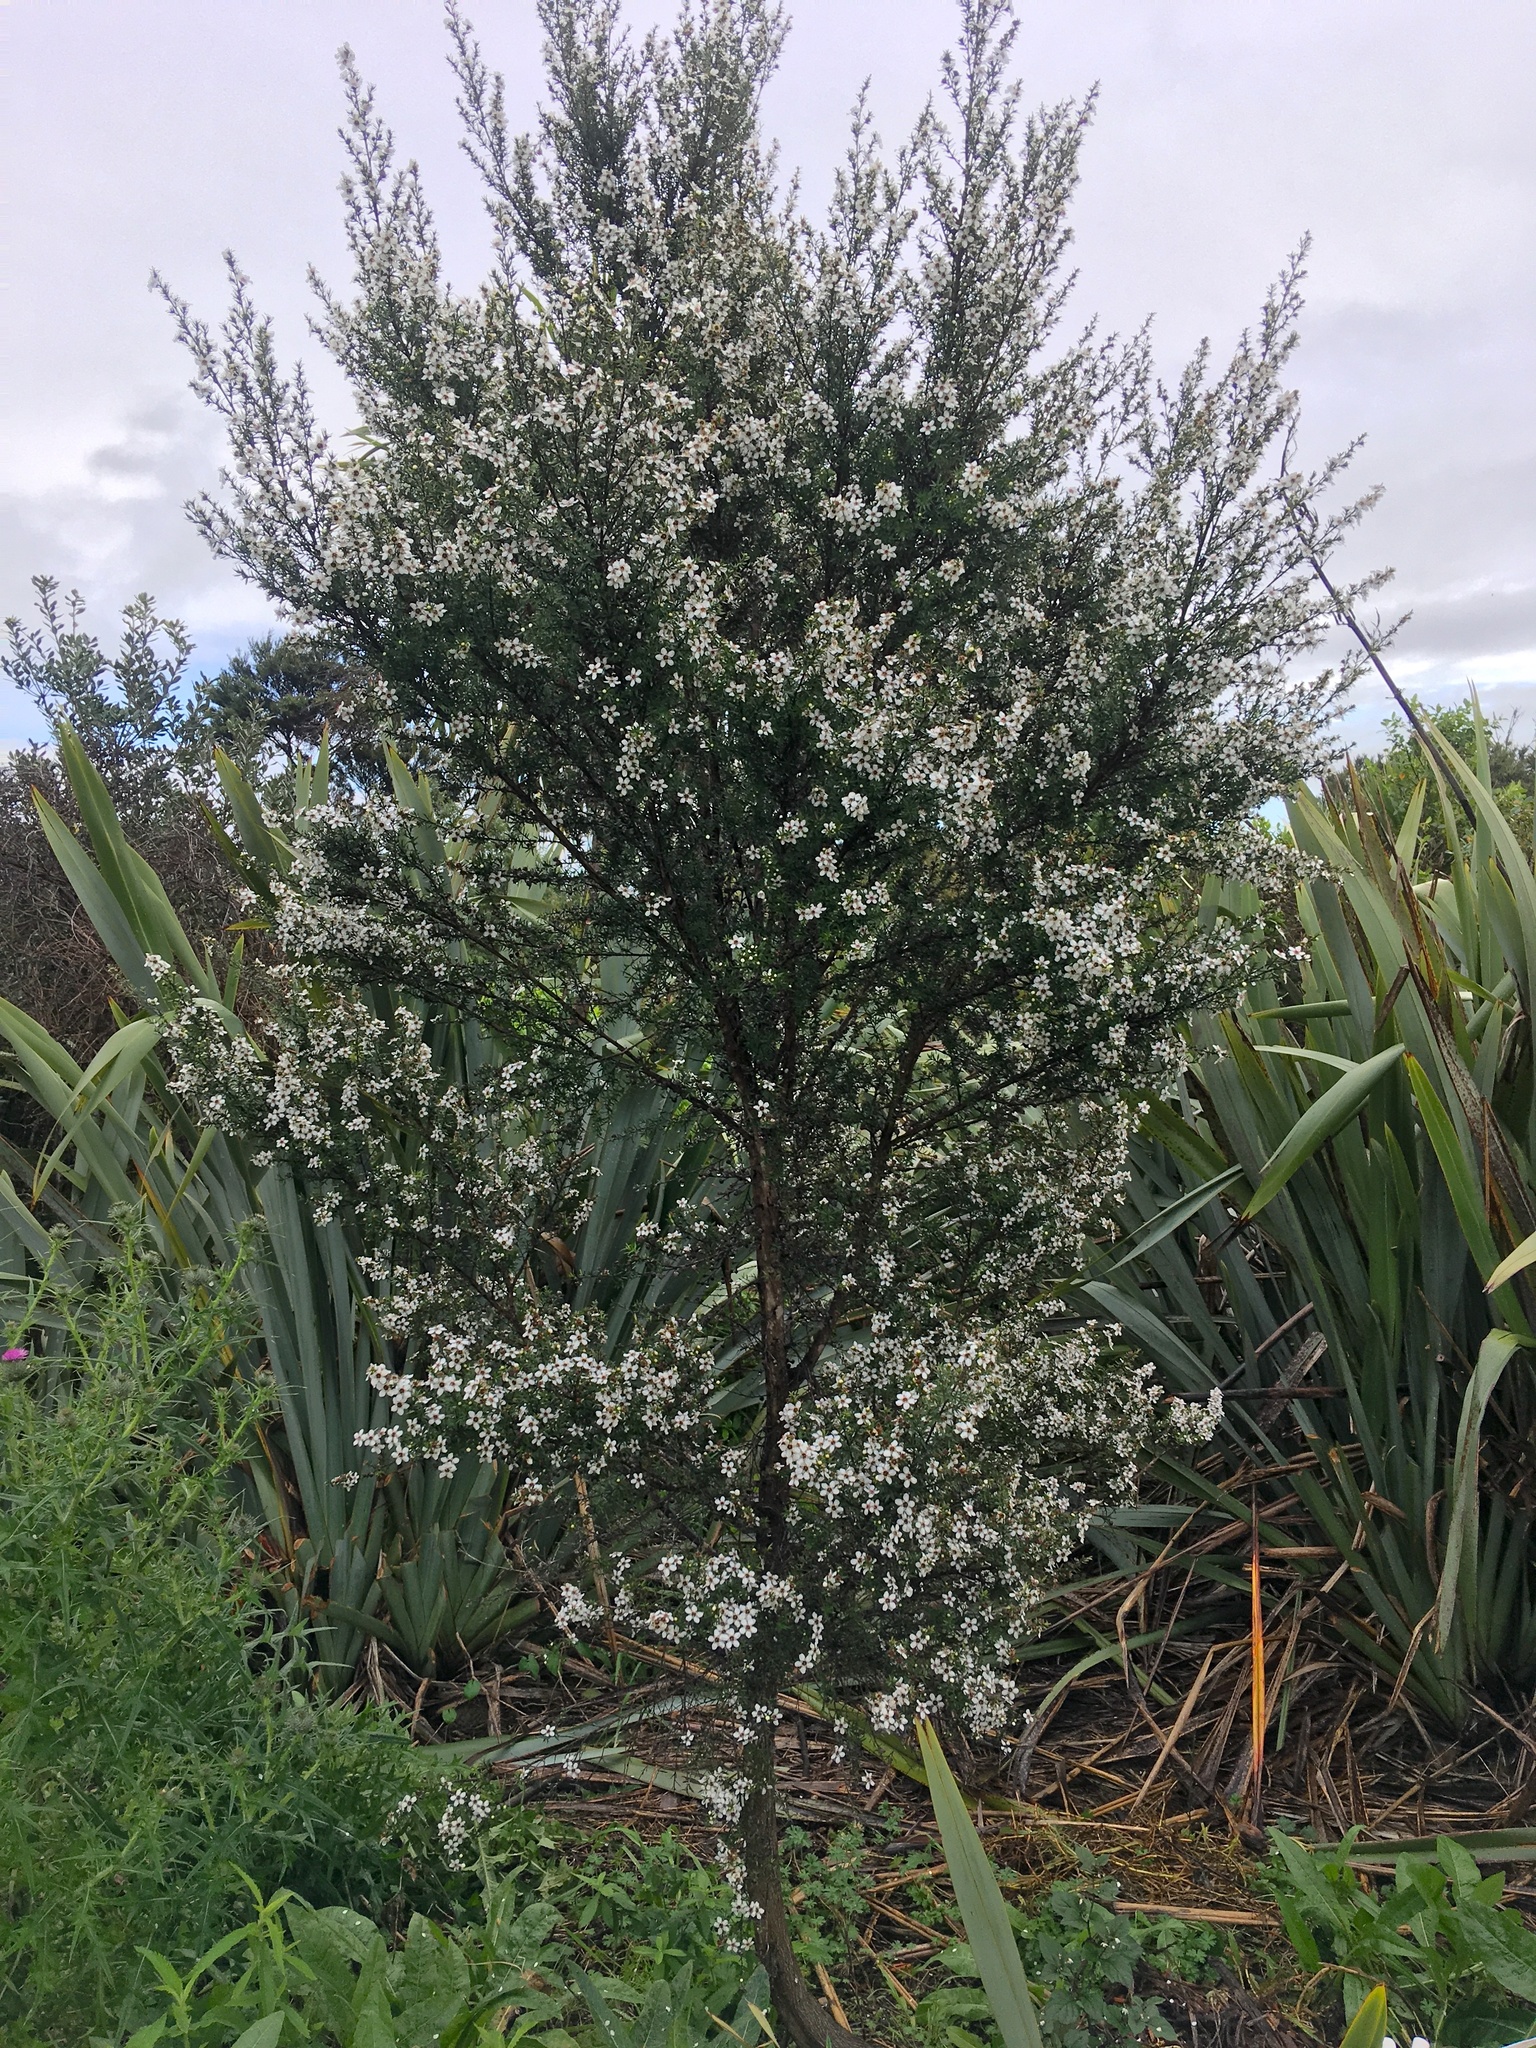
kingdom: Plantae
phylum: Tracheophyta
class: Magnoliopsida
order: Myrtales
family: Myrtaceae
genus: Leptospermum
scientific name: Leptospermum scoparium
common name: Broom tea-tree
